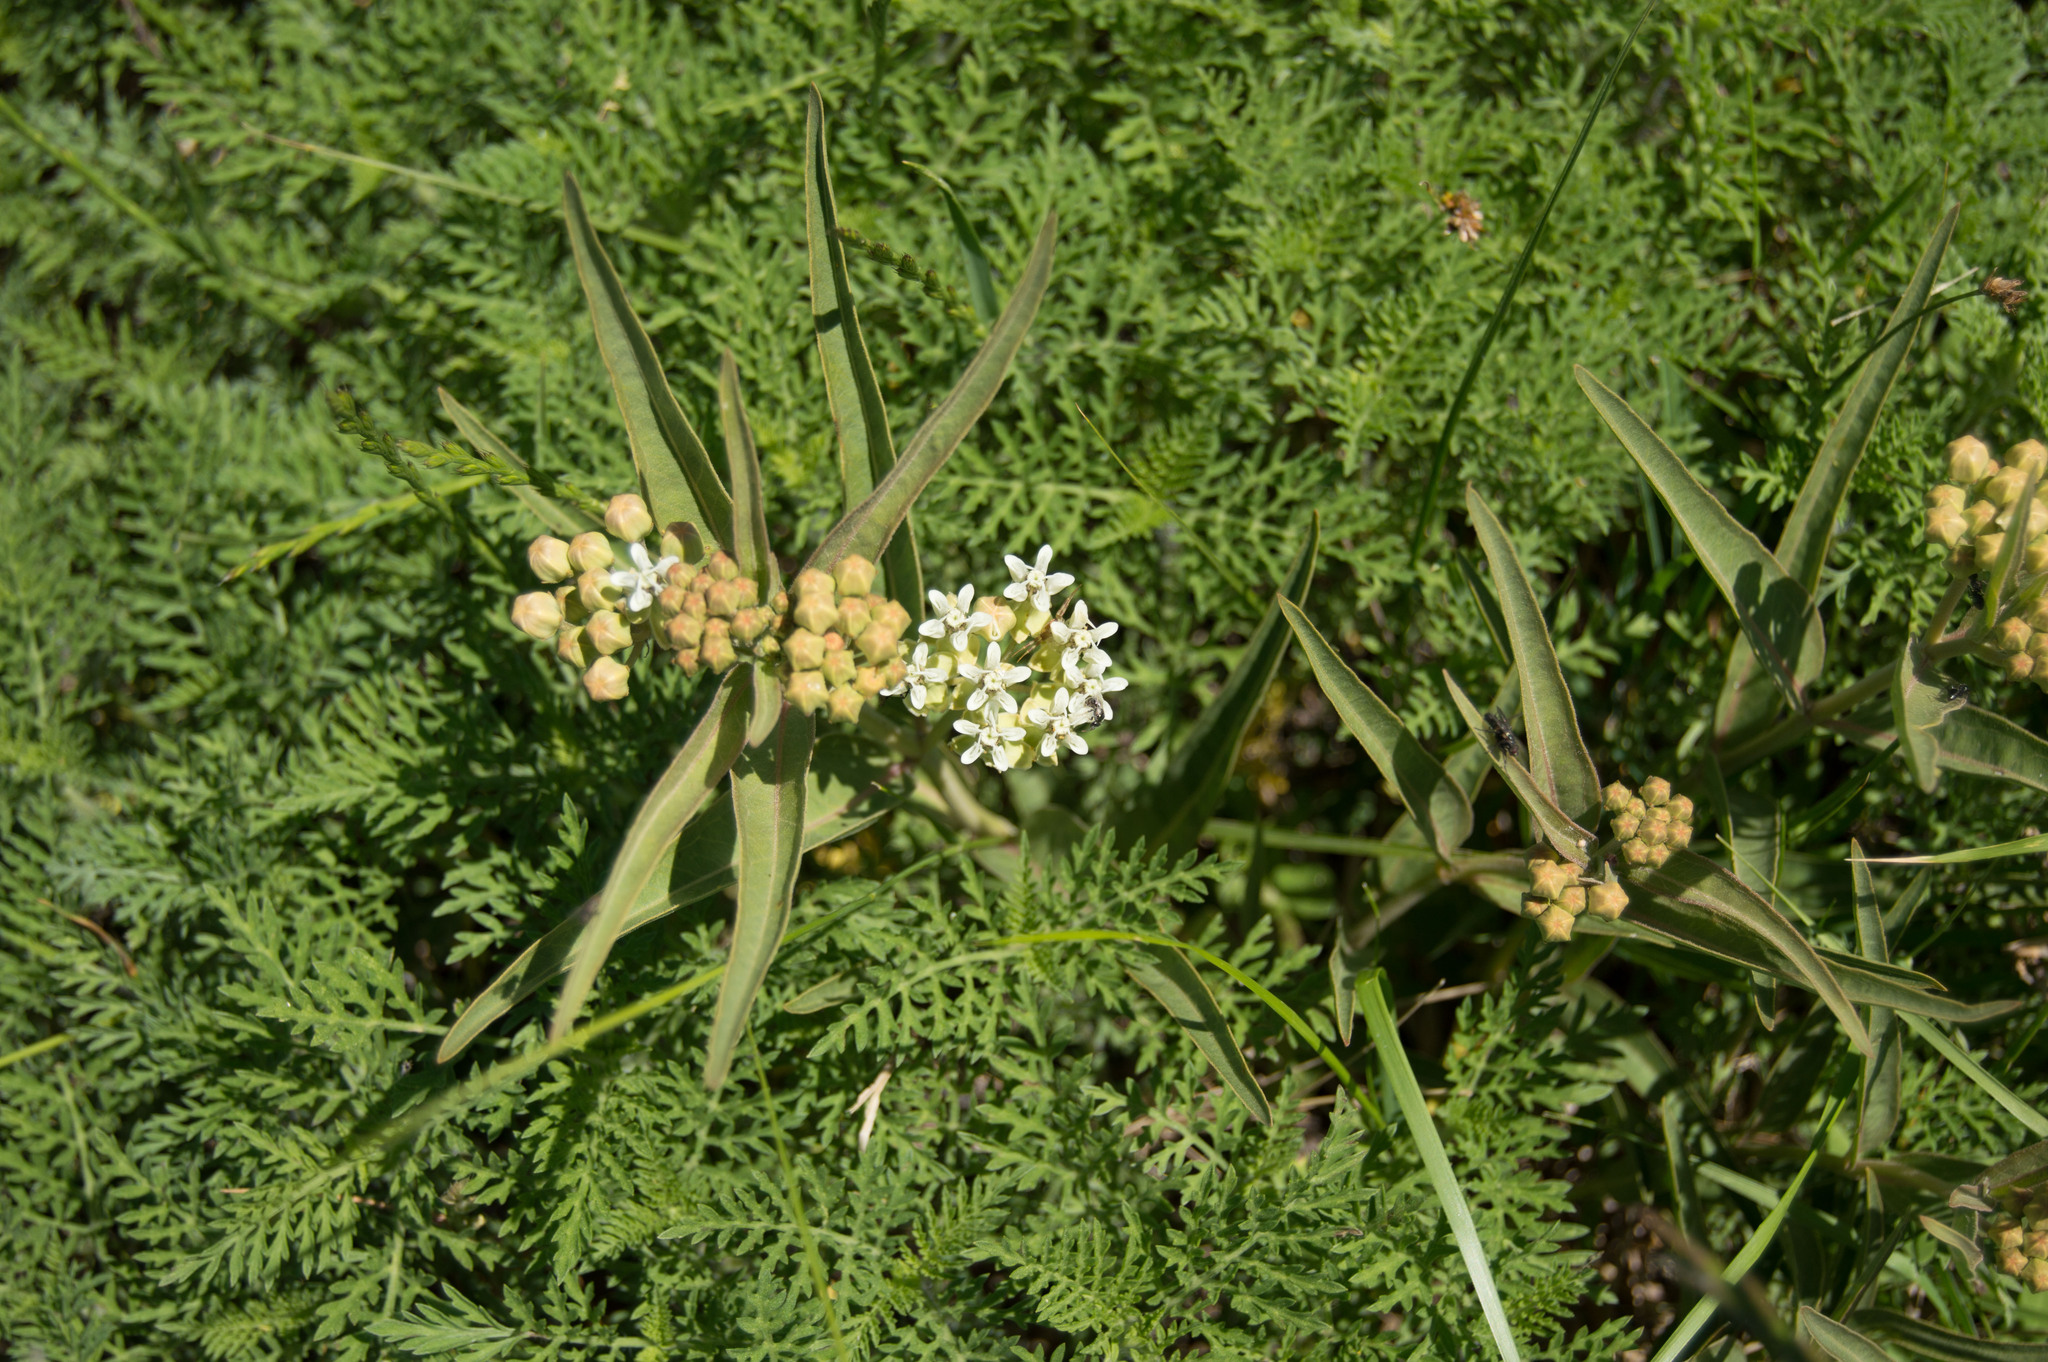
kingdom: Plantae
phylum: Tracheophyta
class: Magnoliopsida
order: Gentianales
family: Apocynaceae
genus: Asclepias
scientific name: Asclepias mellodora
